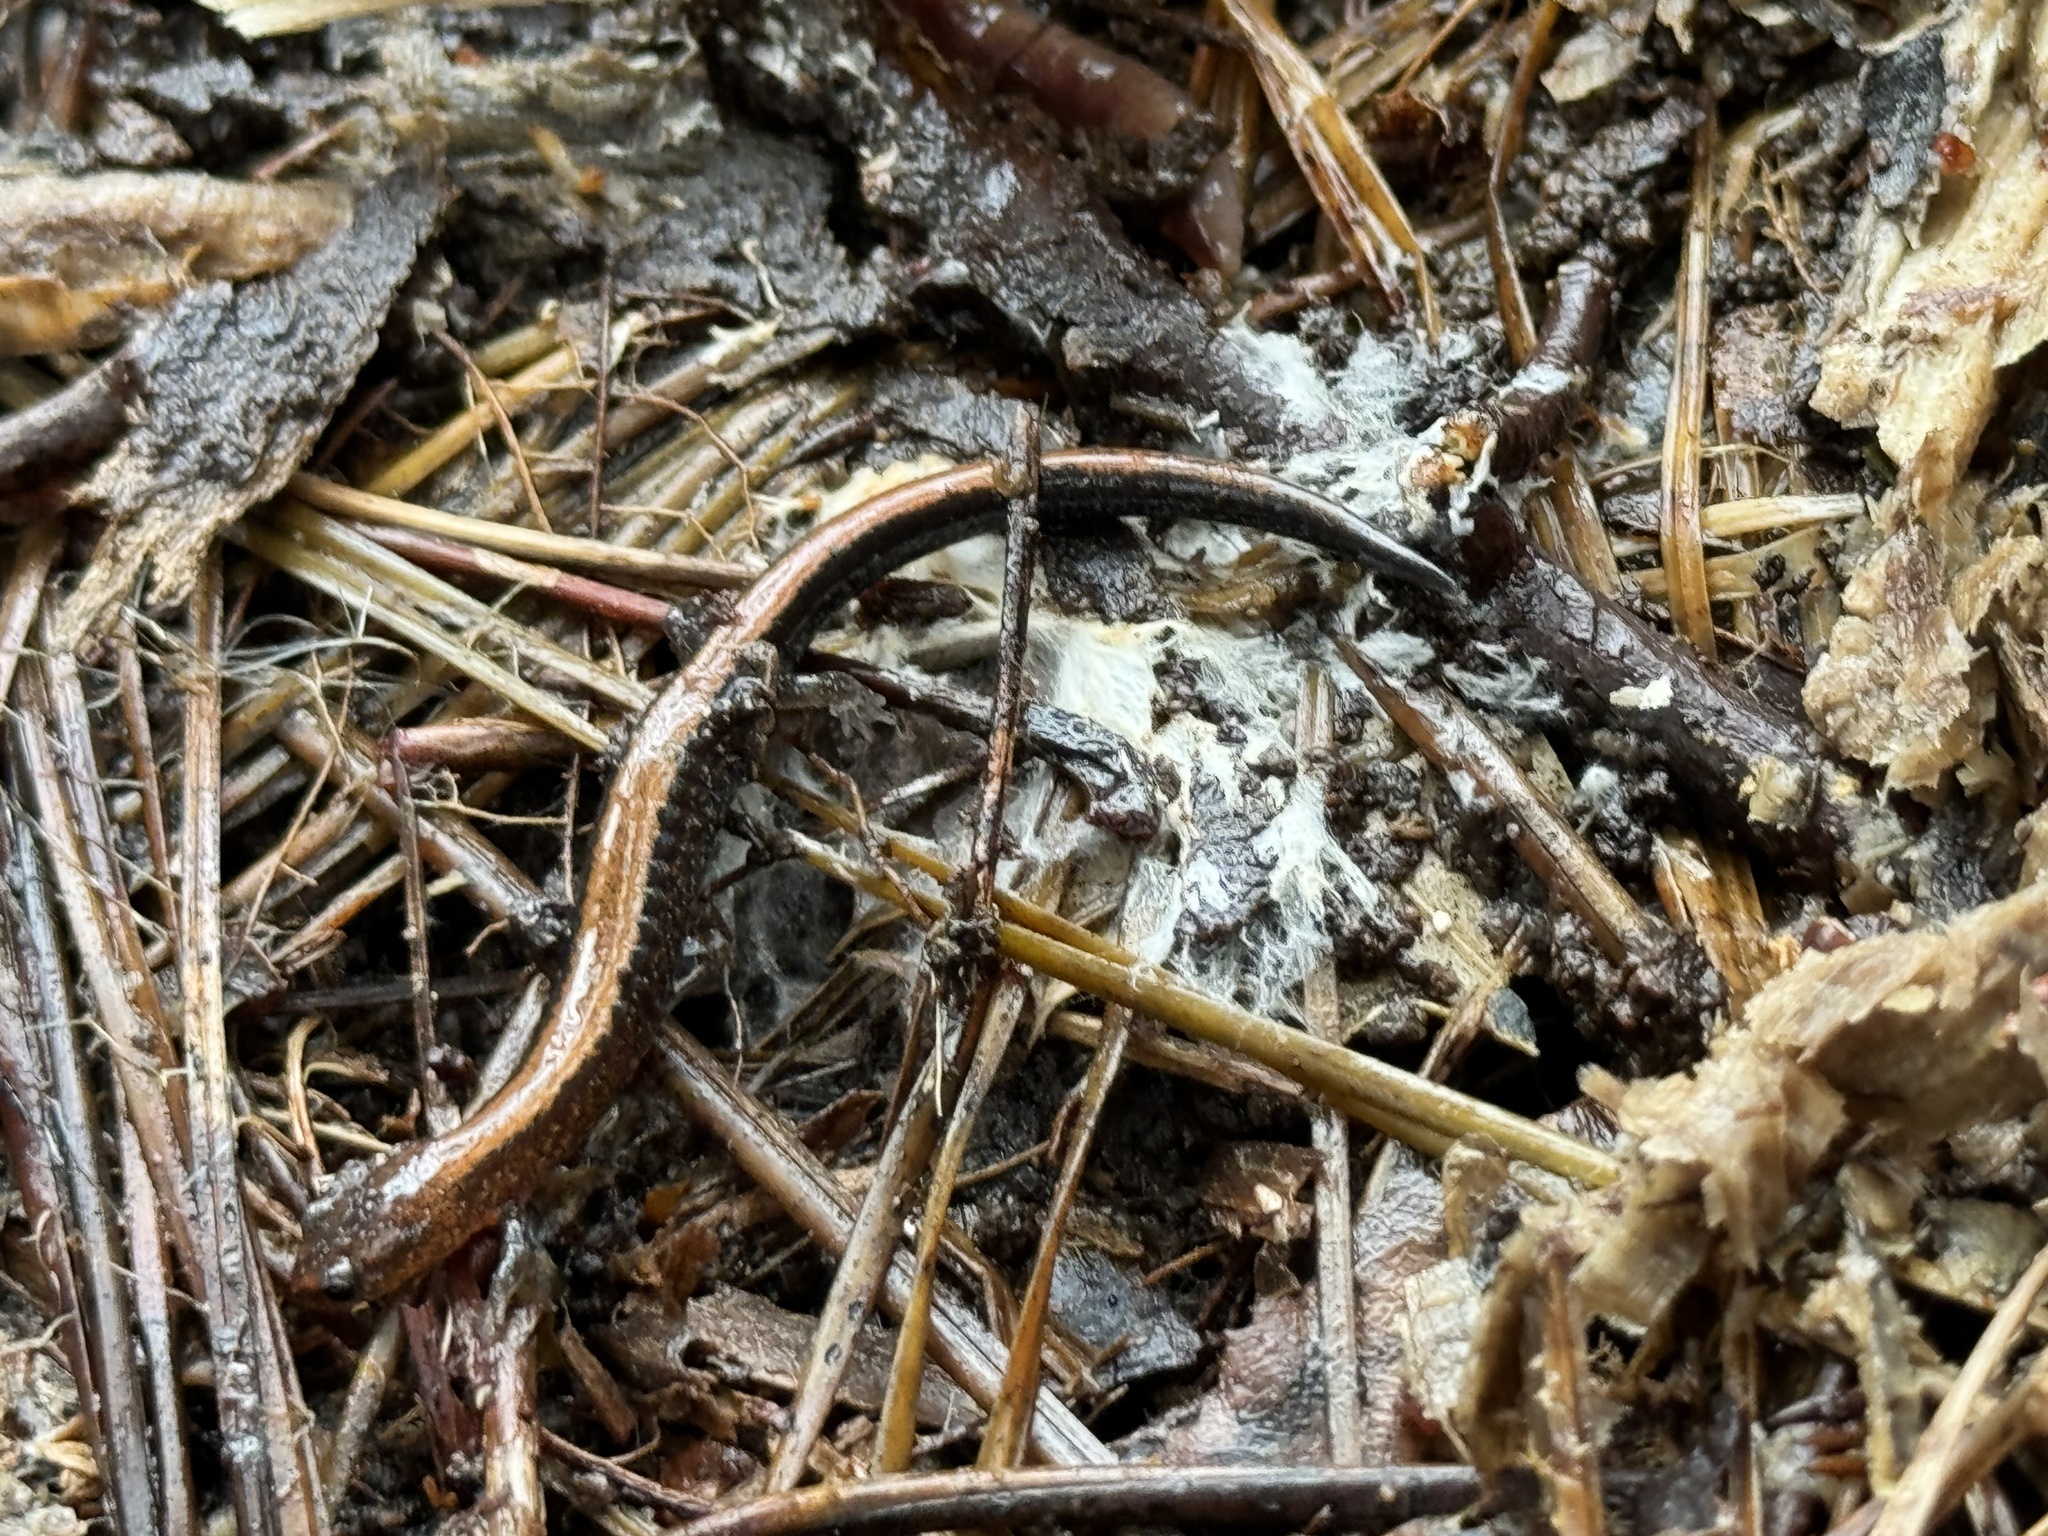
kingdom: Animalia
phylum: Chordata
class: Amphibia
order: Caudata
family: Plethodontidae
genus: Plethodon
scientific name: Plethodon cinereus
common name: Redback salamander
